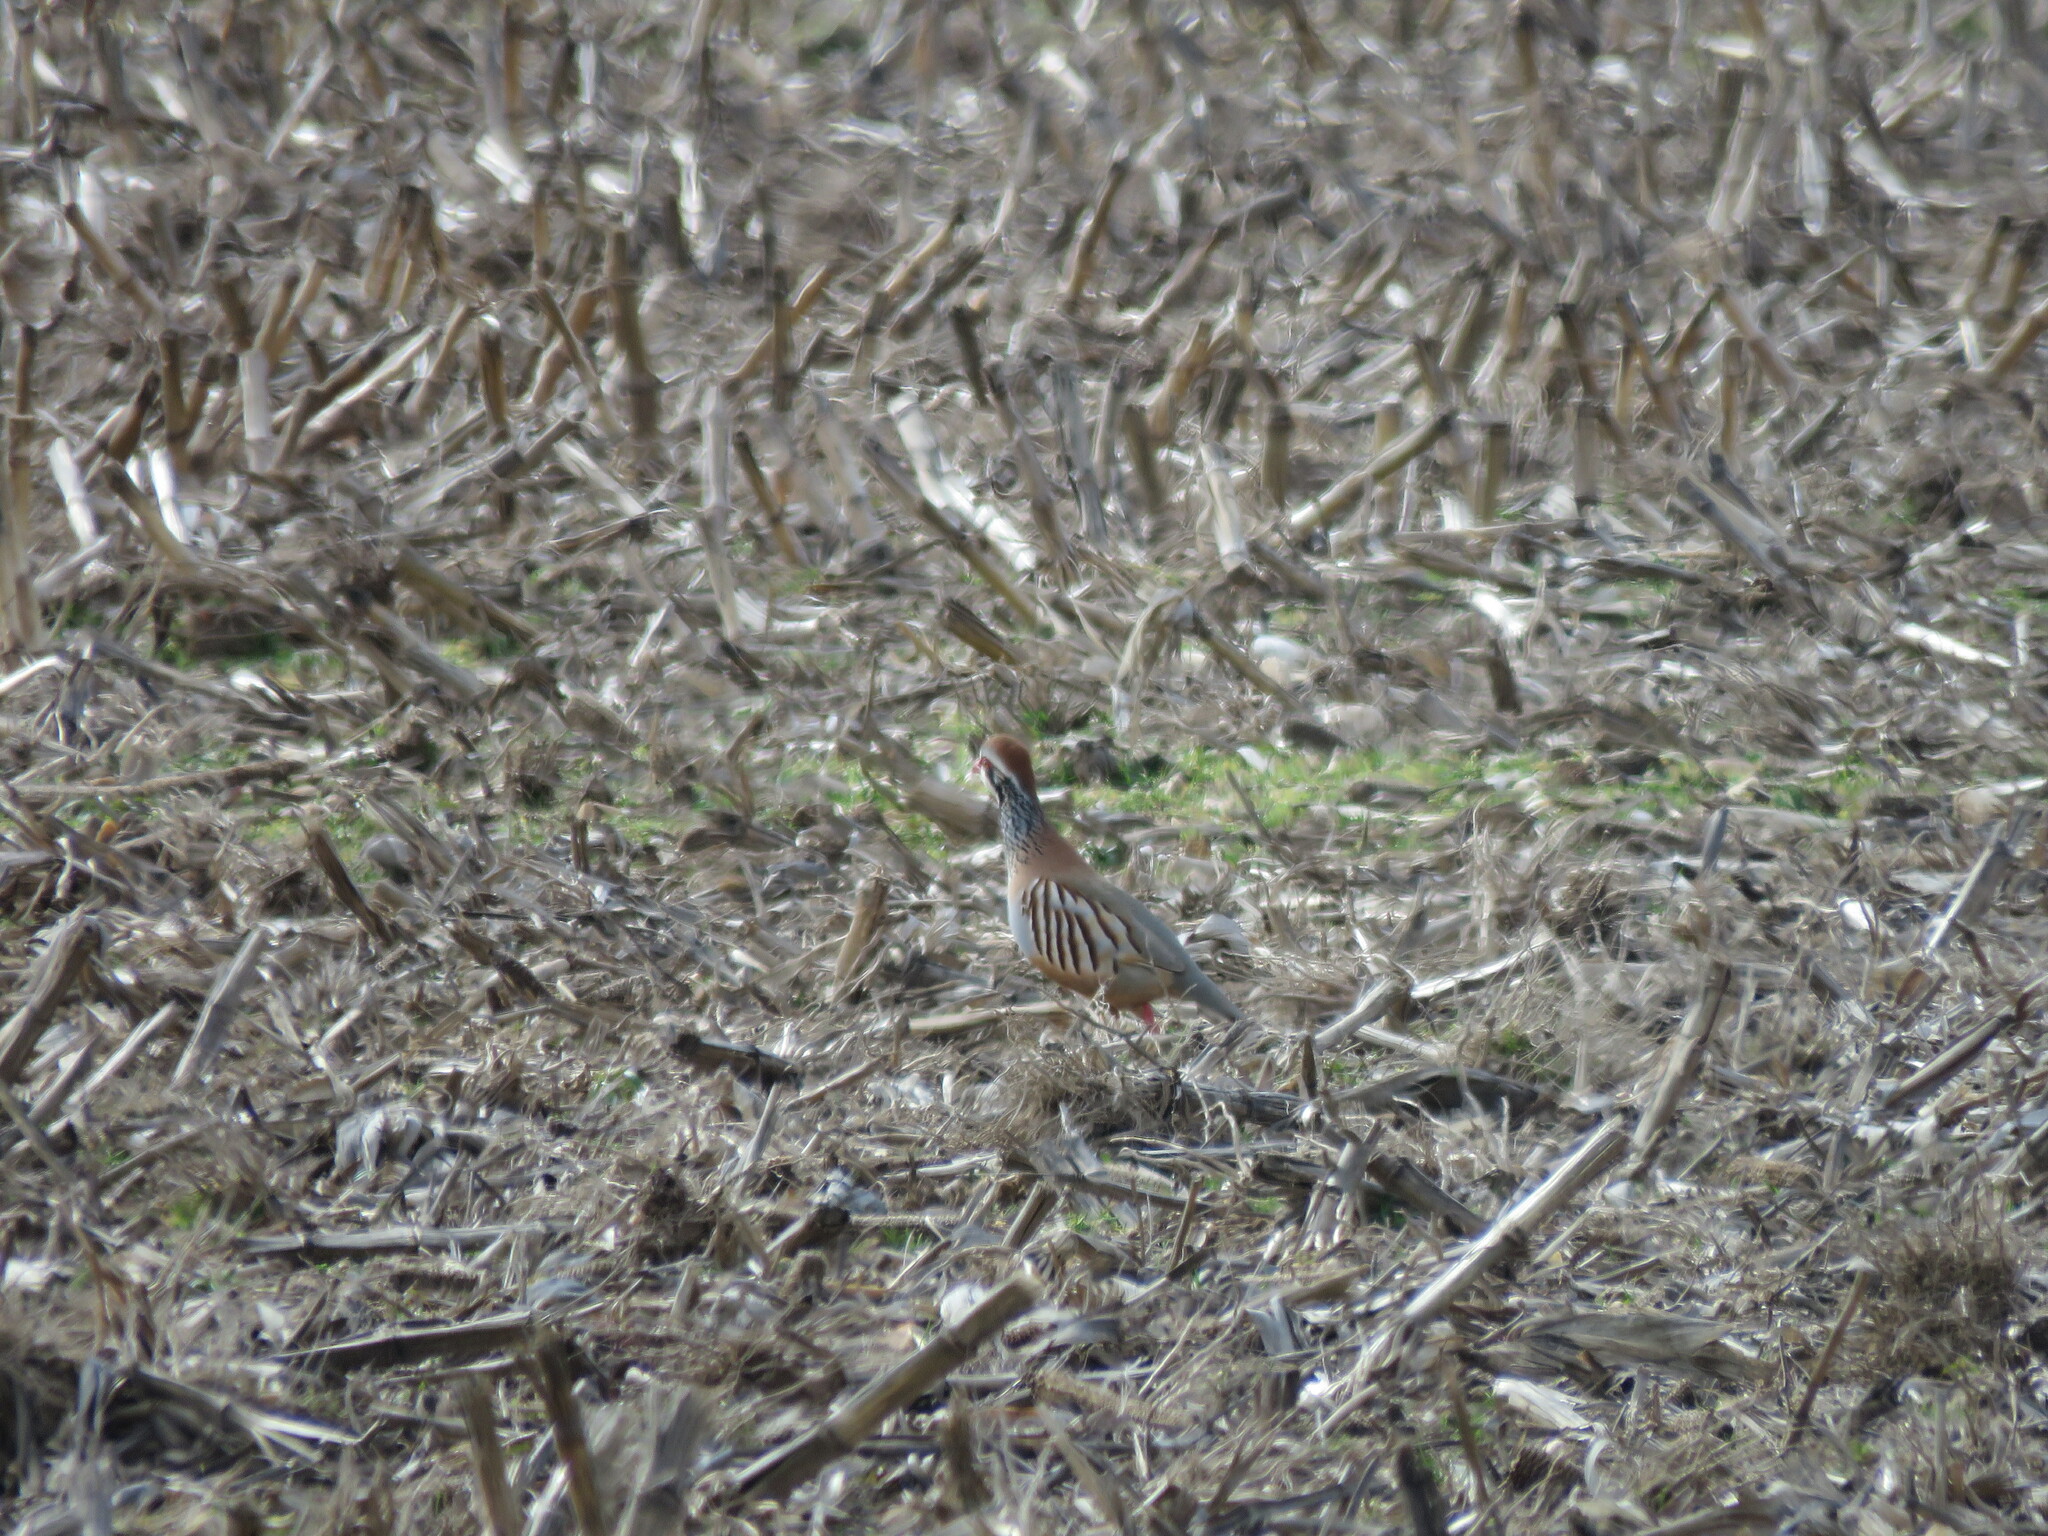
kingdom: Animalia
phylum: Chordata
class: Aves
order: Galliformes
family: Phasianidae
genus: Alectoris
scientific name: Alectoris rufa
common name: Red-legged partridge
